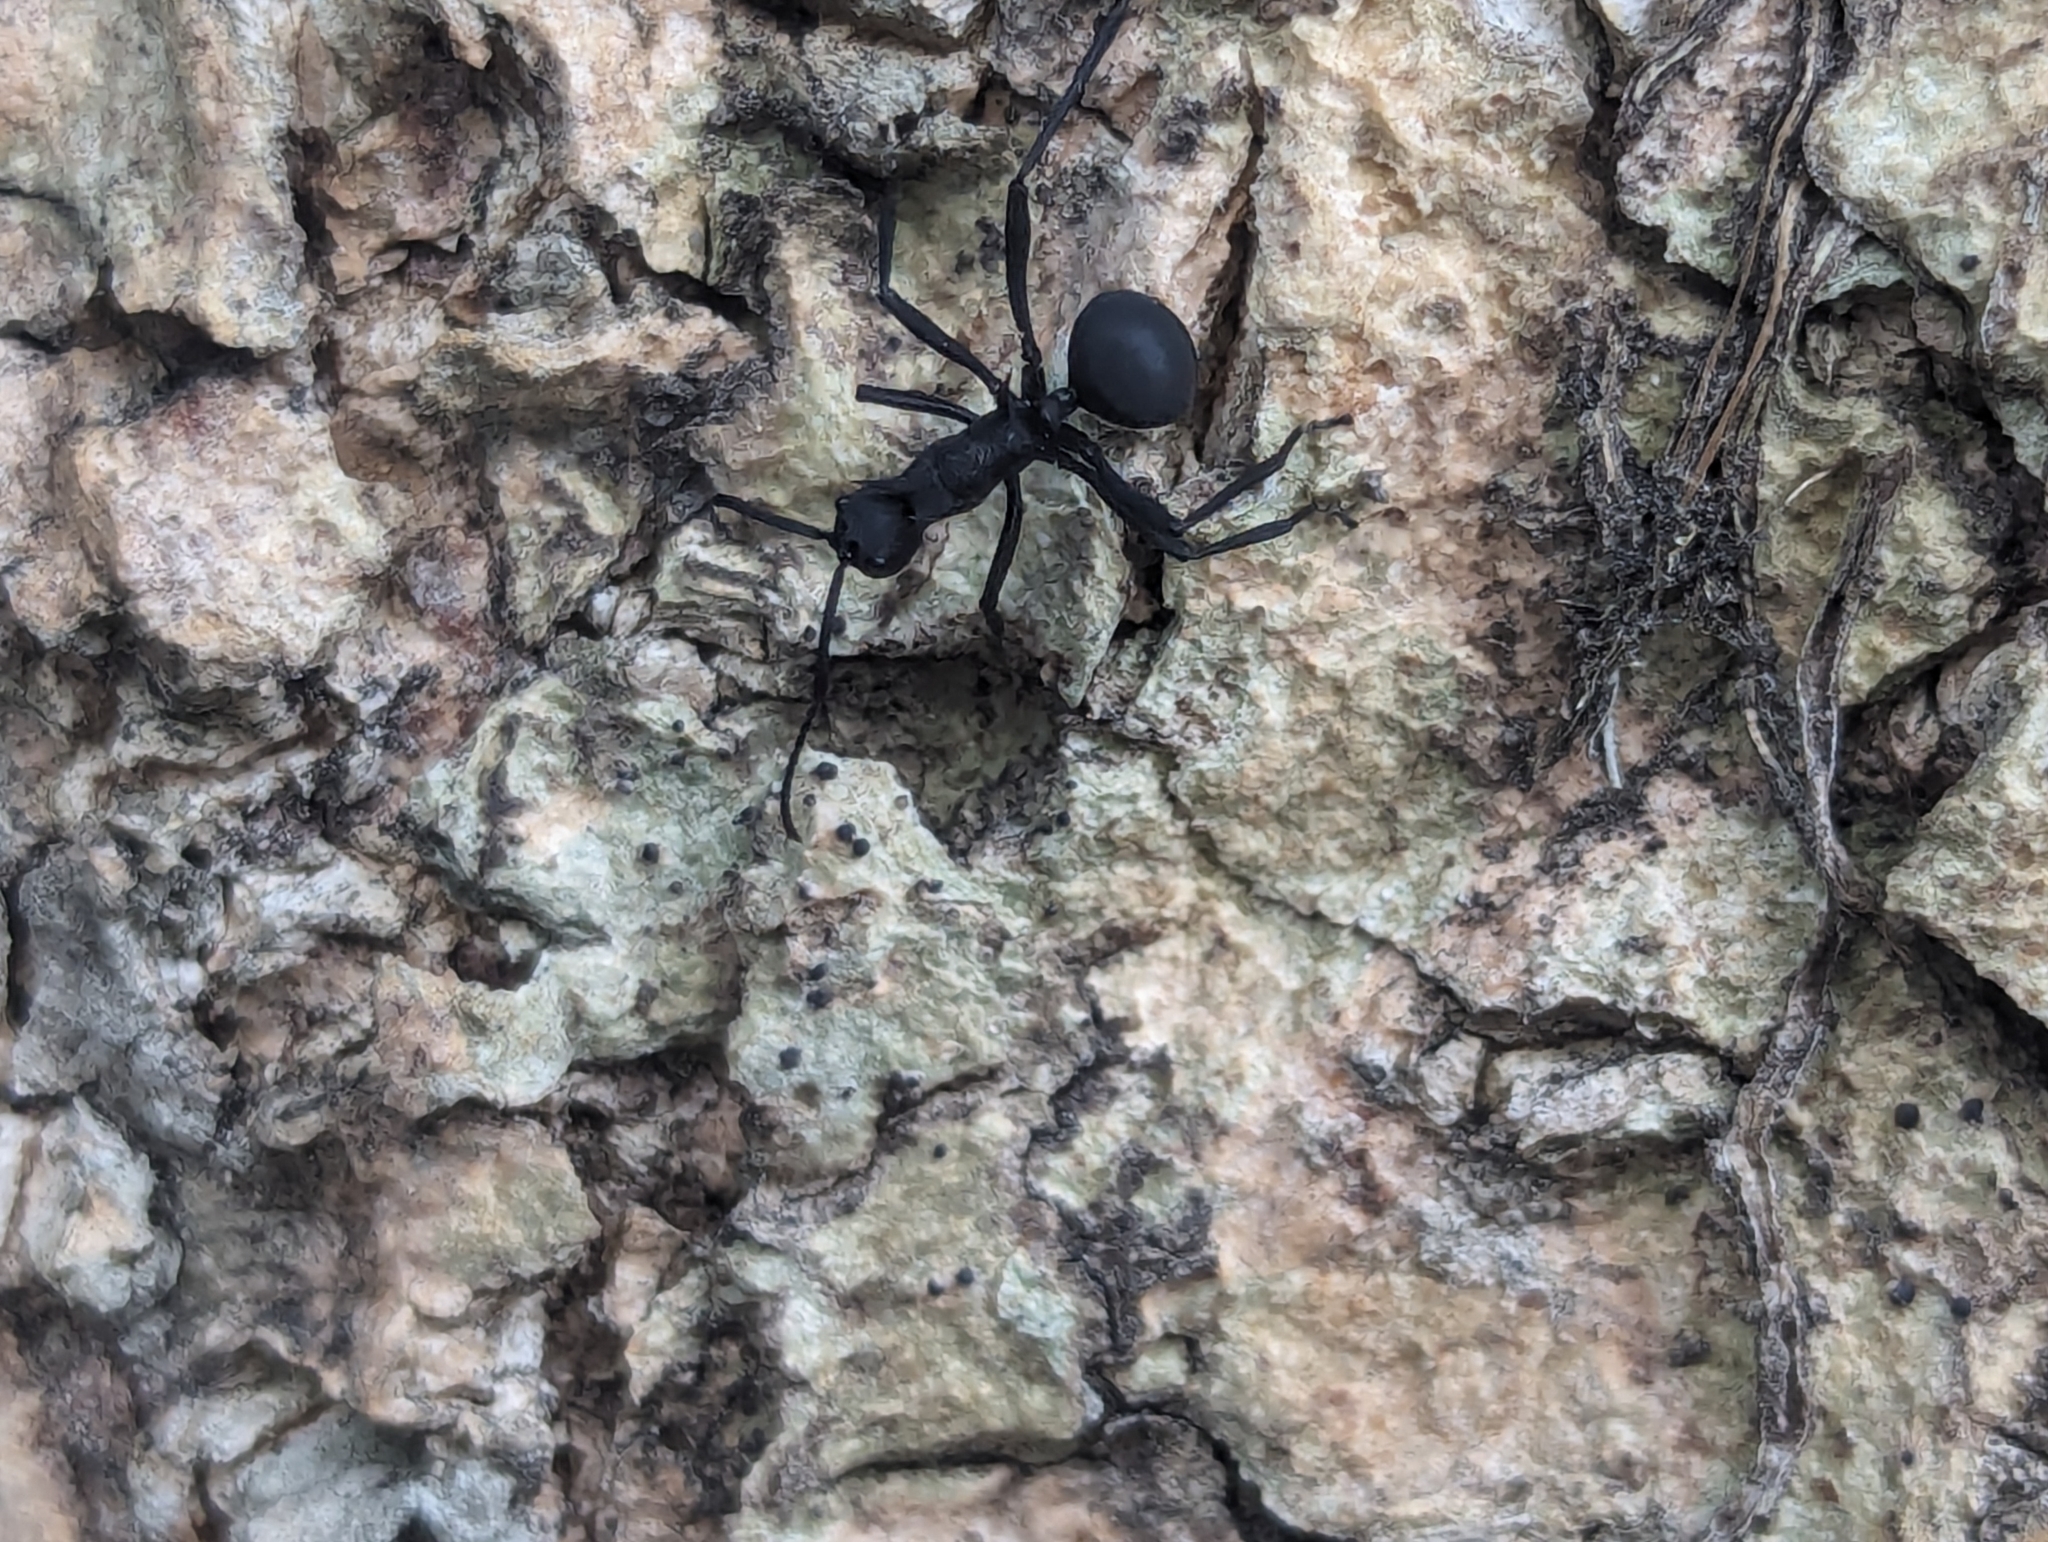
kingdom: Animalia
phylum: Arthropoda
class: Insecta
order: Hymenoptera
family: Formicidae
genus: Polyrhachis
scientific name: Polyrhachis armata
